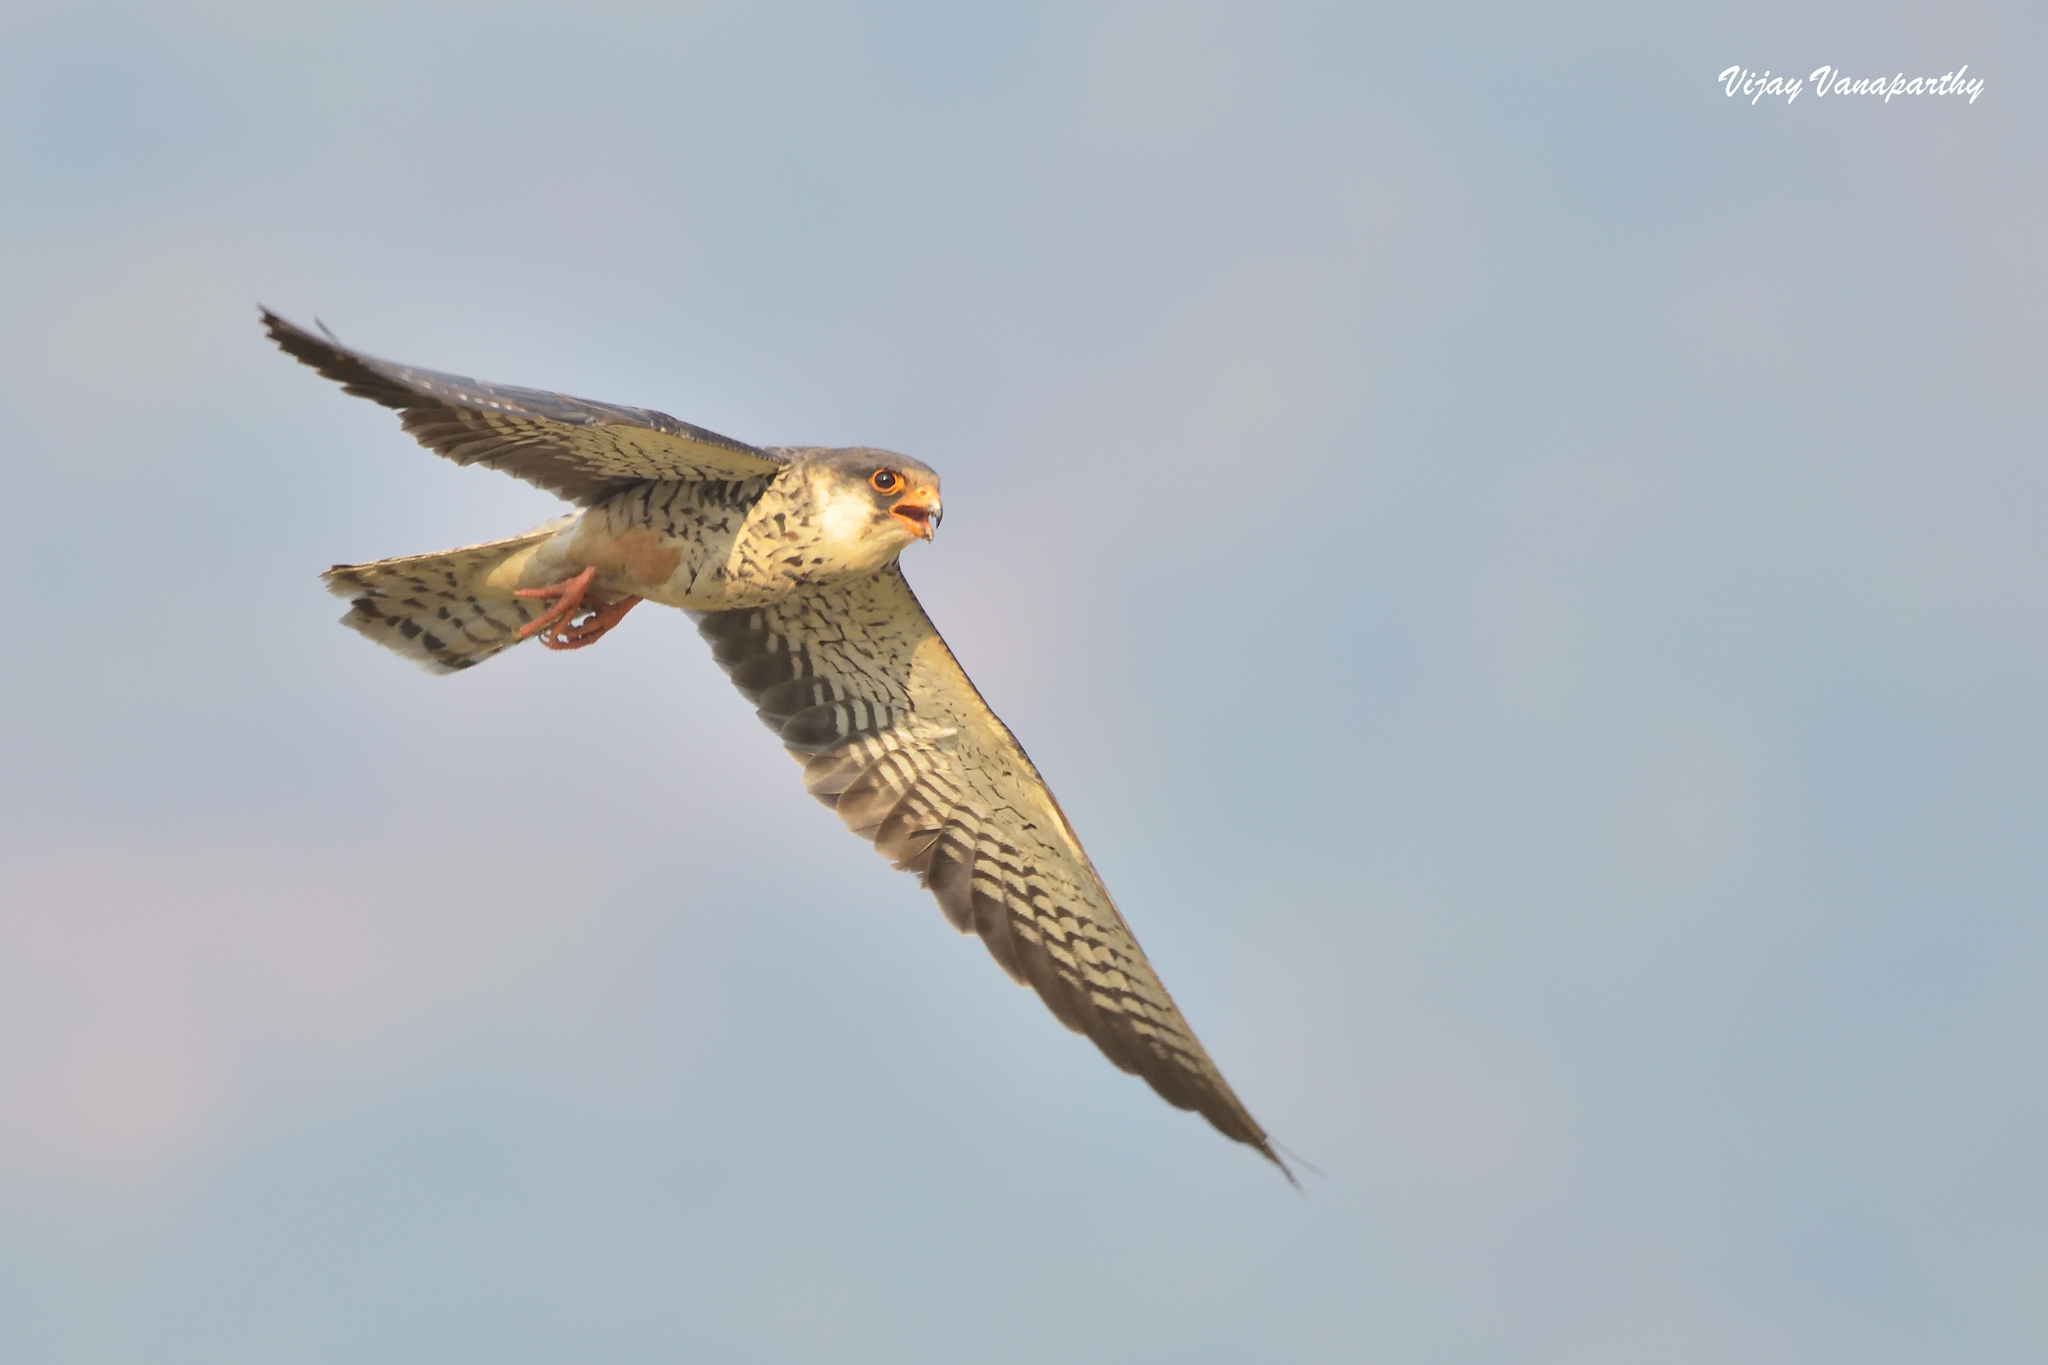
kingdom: Animalia
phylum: Chordata
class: Aves
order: Falconiformes
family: Falconidae
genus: Falco
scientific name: Falco amurensis
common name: Amur falcon
